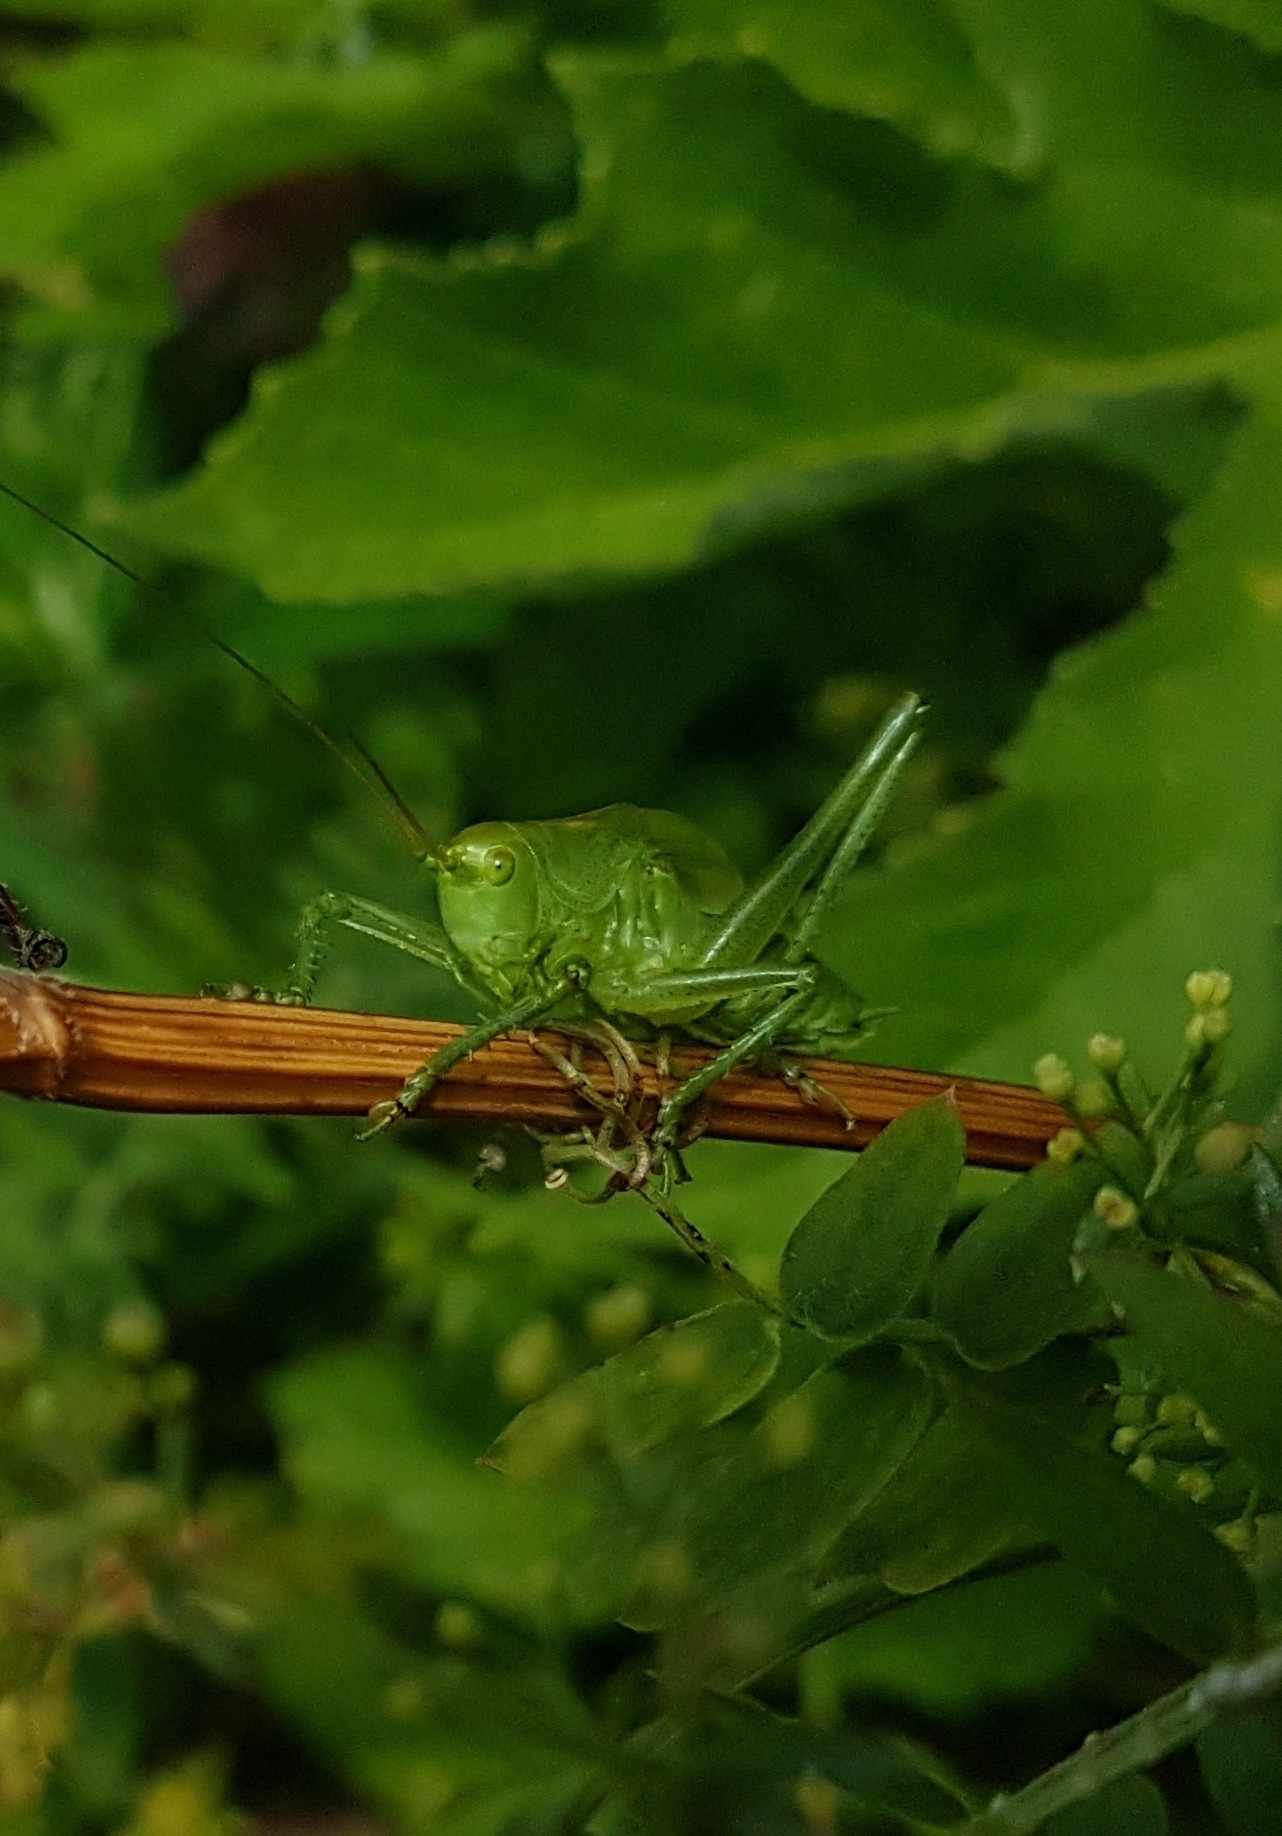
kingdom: Animalia
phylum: Arthropoda
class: Insecta
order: Orthoptera
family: Tettigoniidae
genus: Tettigonia
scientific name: Tettigonia cantans
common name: Upland green bush-cricket
